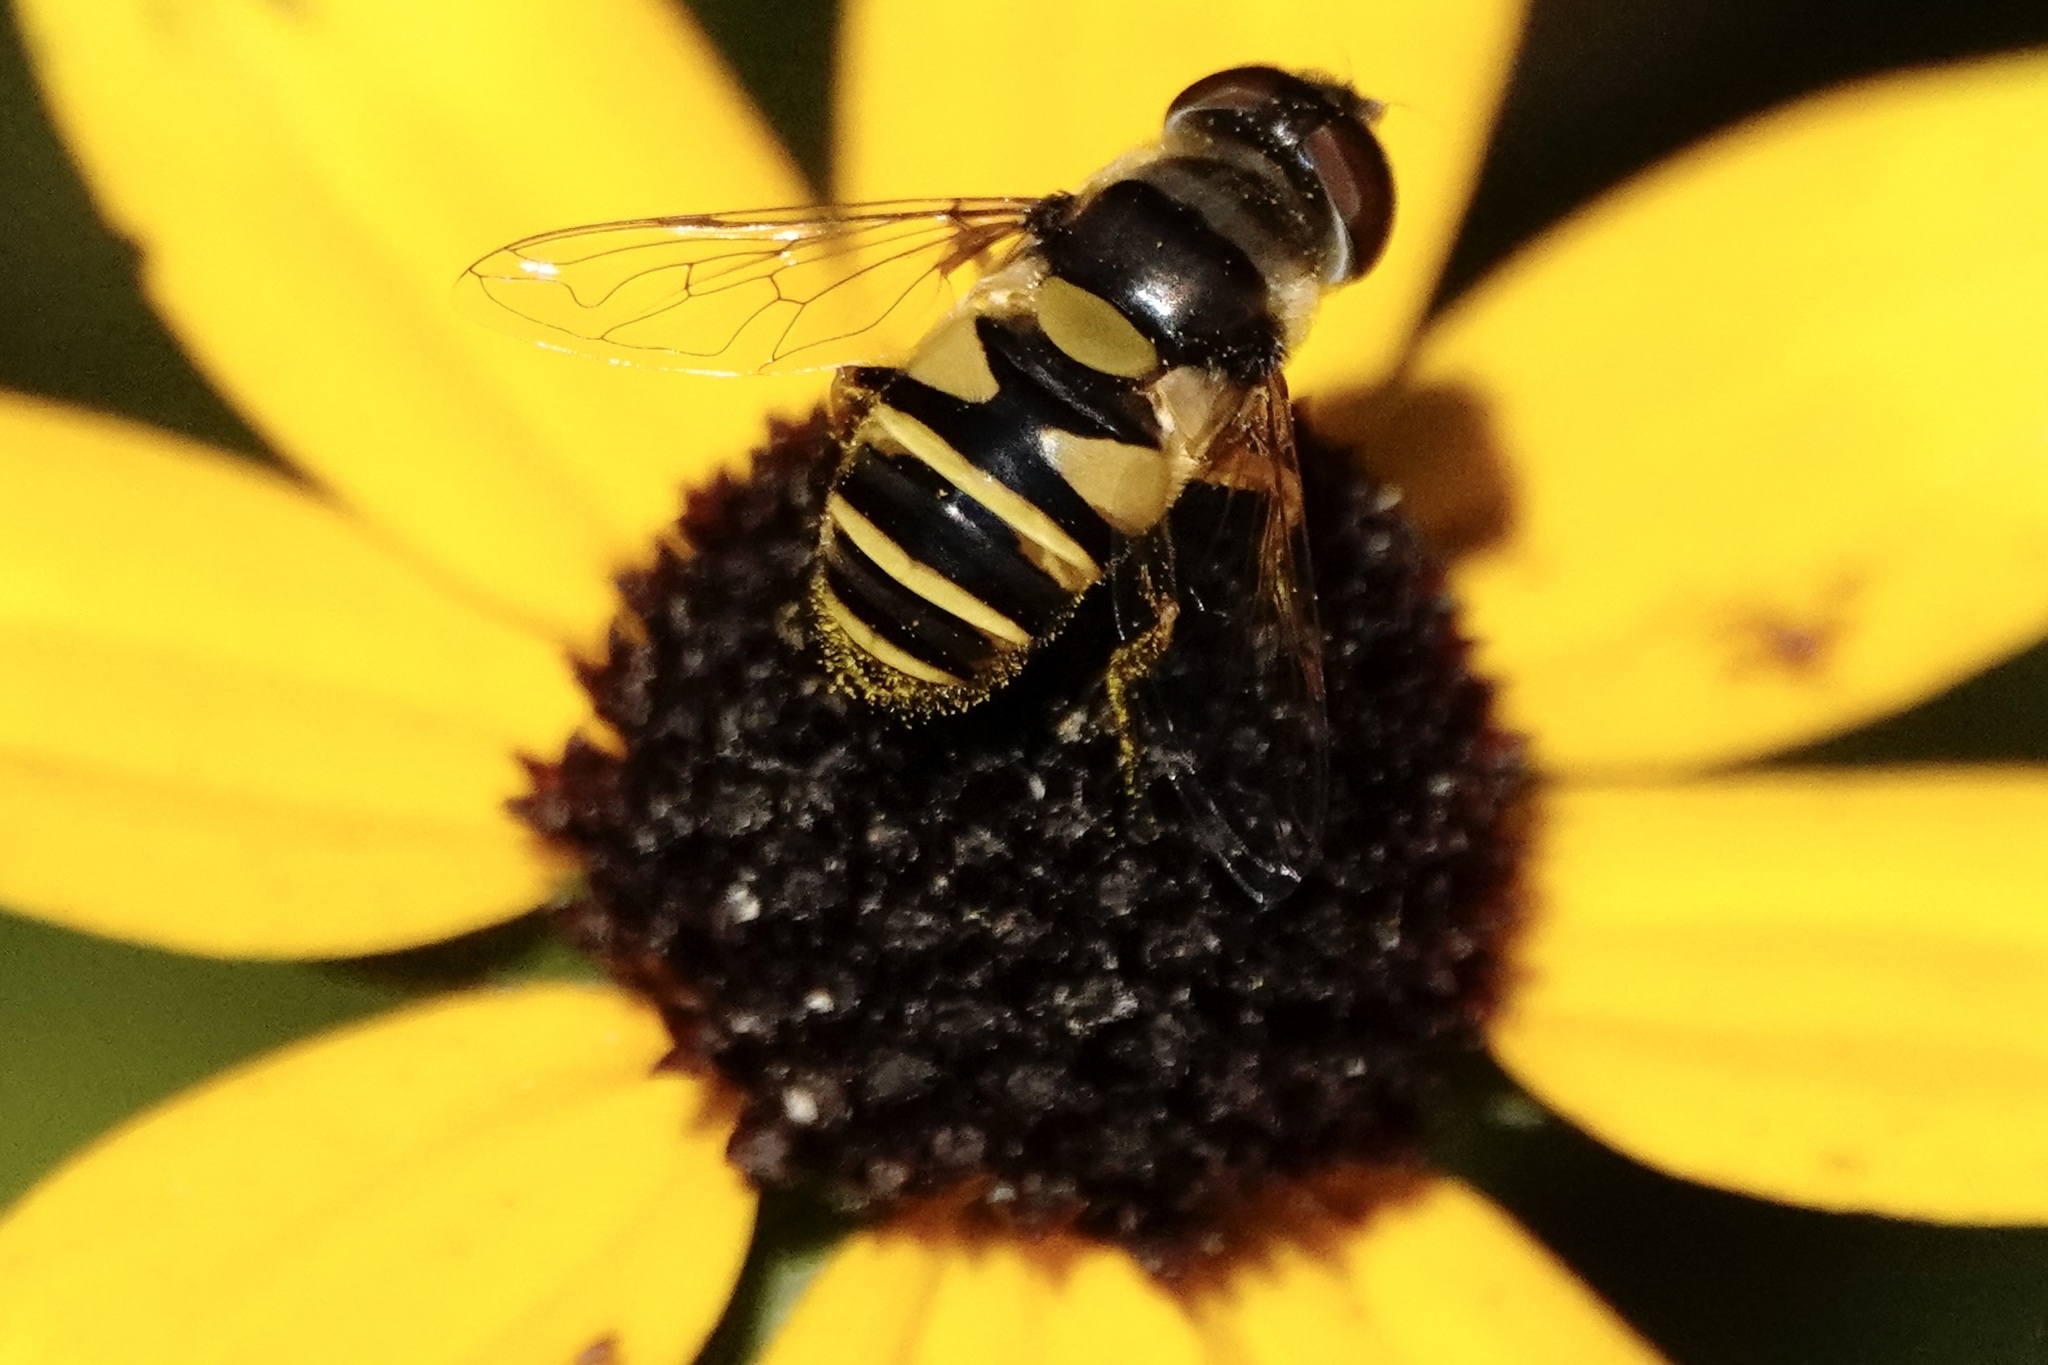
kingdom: Animalia
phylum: Arthropoda
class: Insecta
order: Diptera
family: Syrphidae
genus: Eristalis
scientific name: Eristalis transversa
